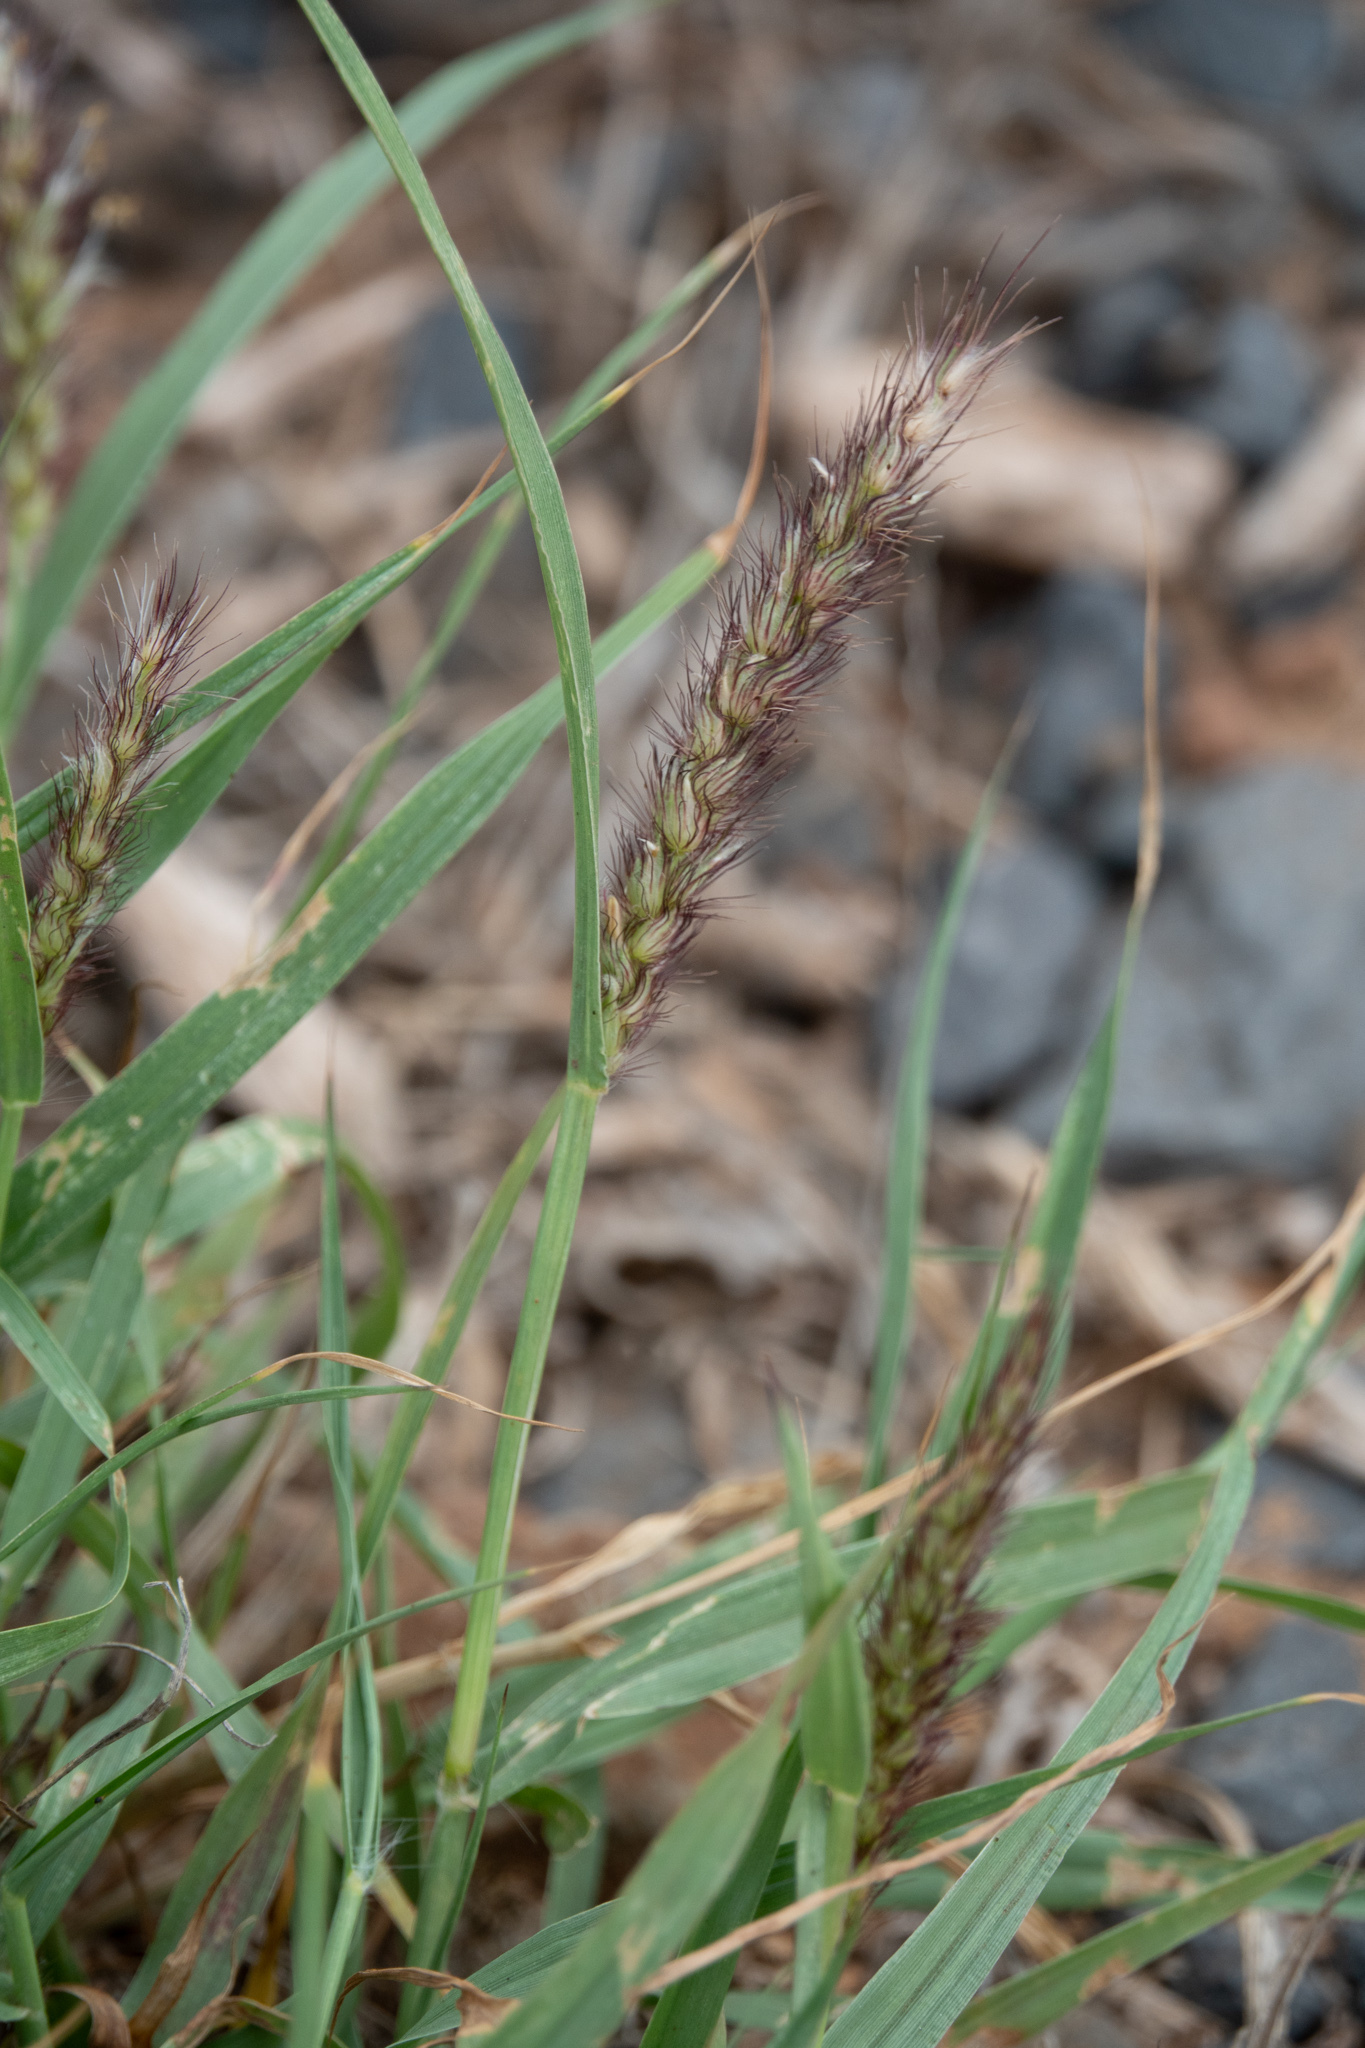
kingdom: Plantae
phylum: Tracheophyta
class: Liliopsida
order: Poales
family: Poaceae
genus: Cenchrus
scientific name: Cenchrus ciliaris
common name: Buffelgrass
